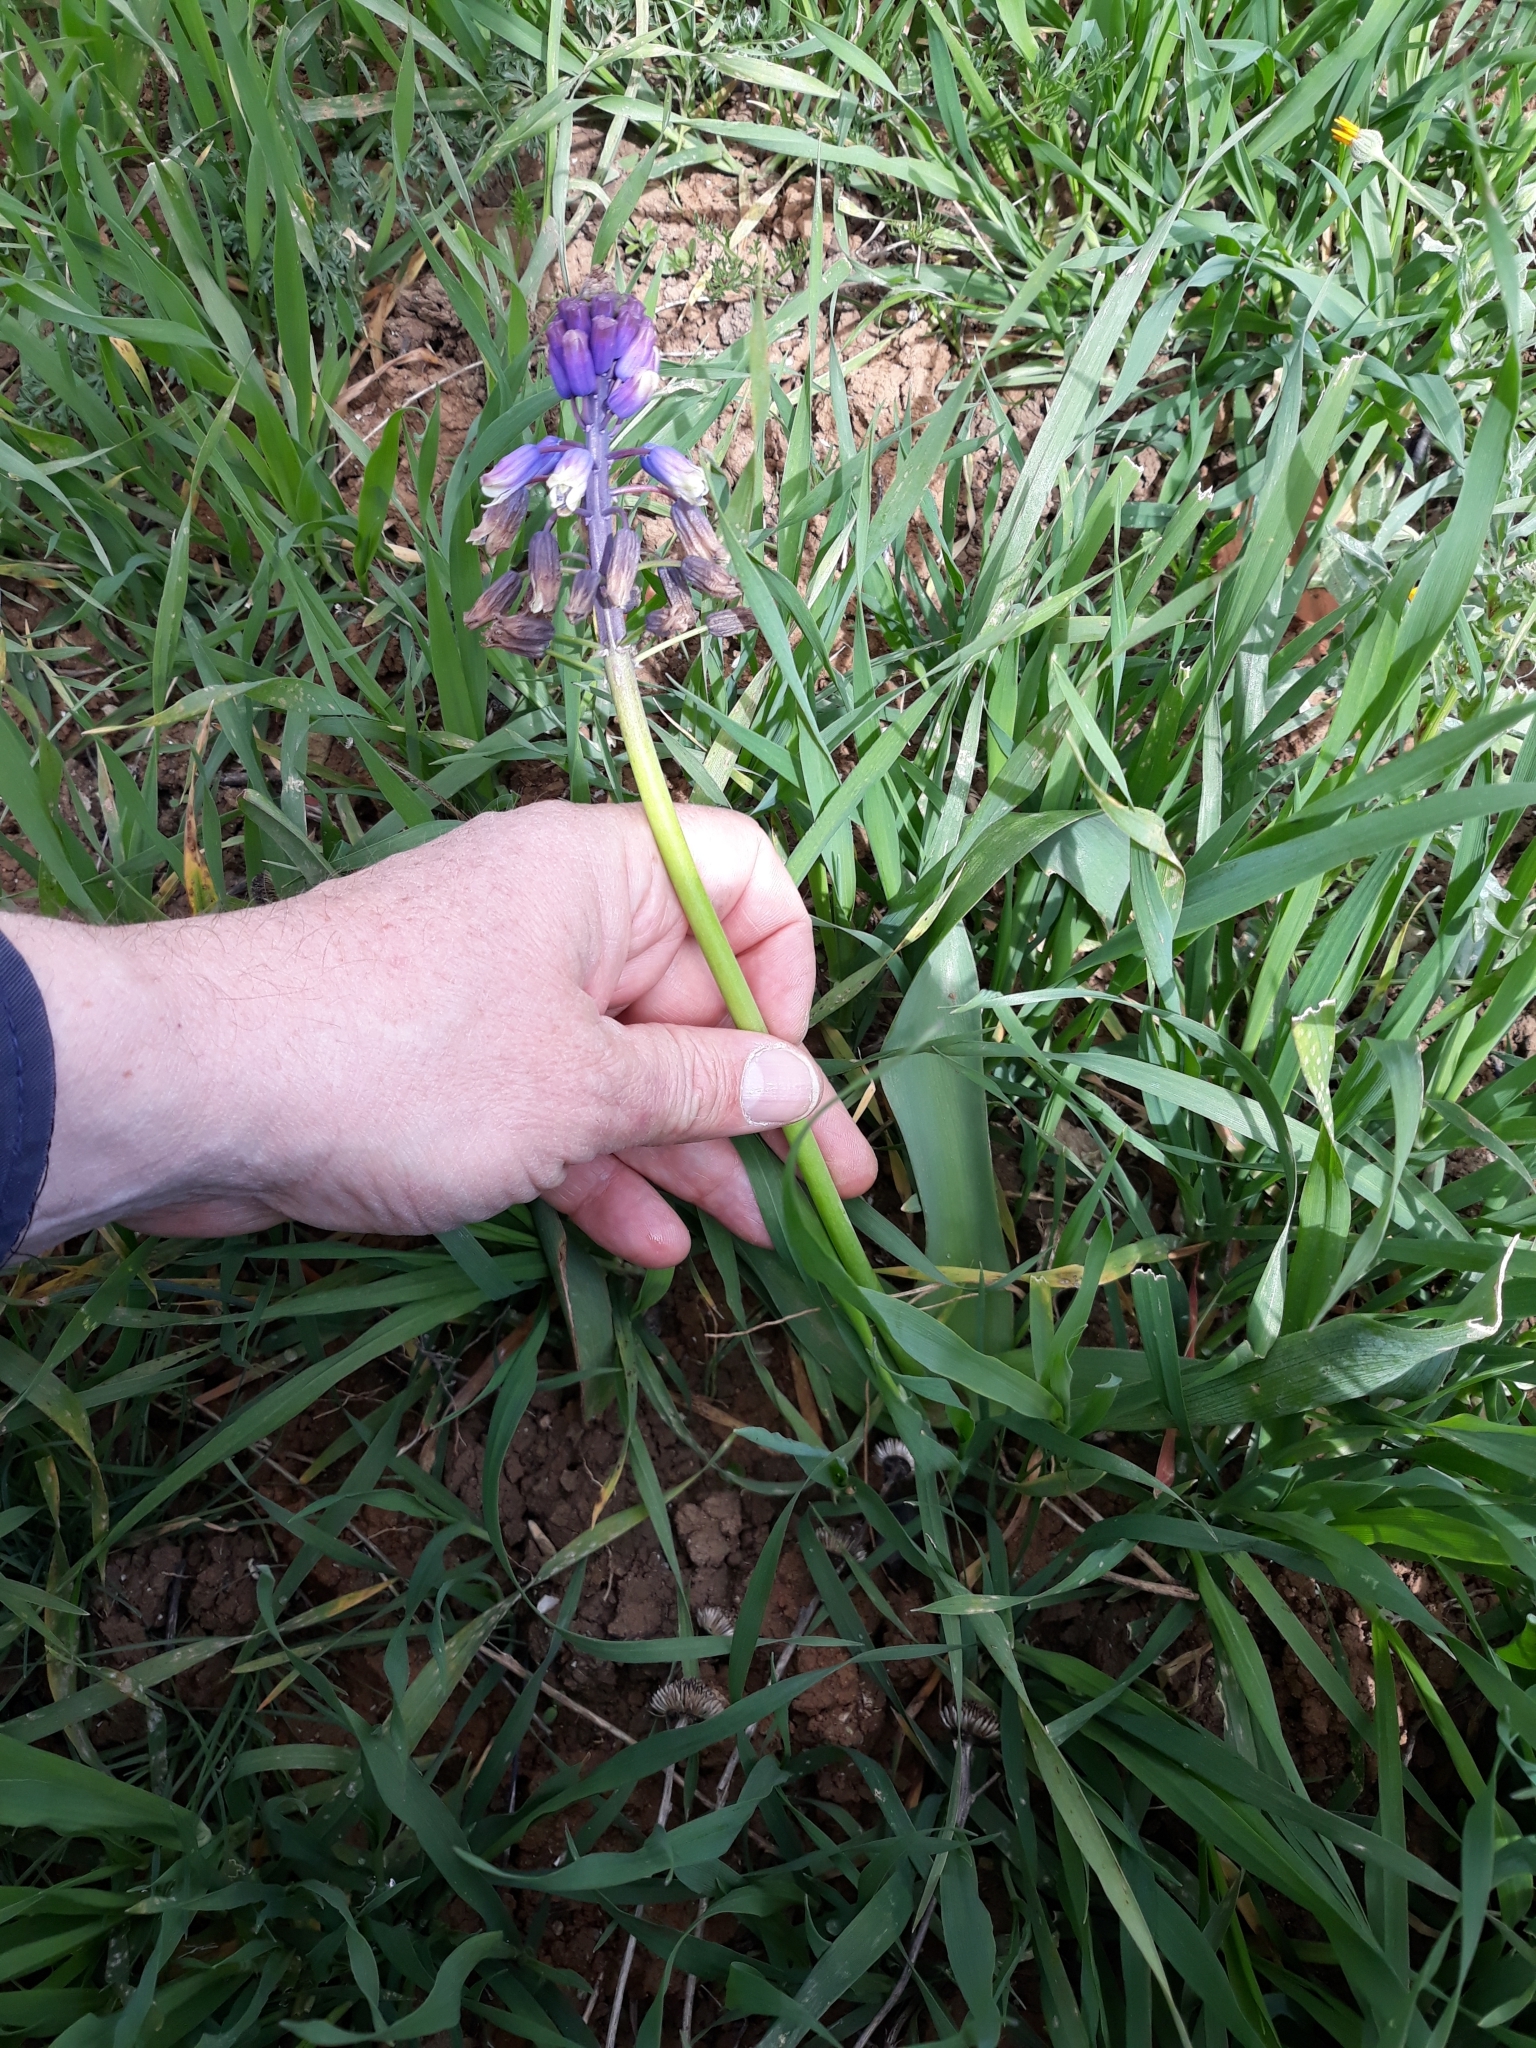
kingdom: Plantae
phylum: Tracheophyta
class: Liliopsida
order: Asparagales
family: Asparagaceae
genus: Bellevalia
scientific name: Bellevalia mauritanica
